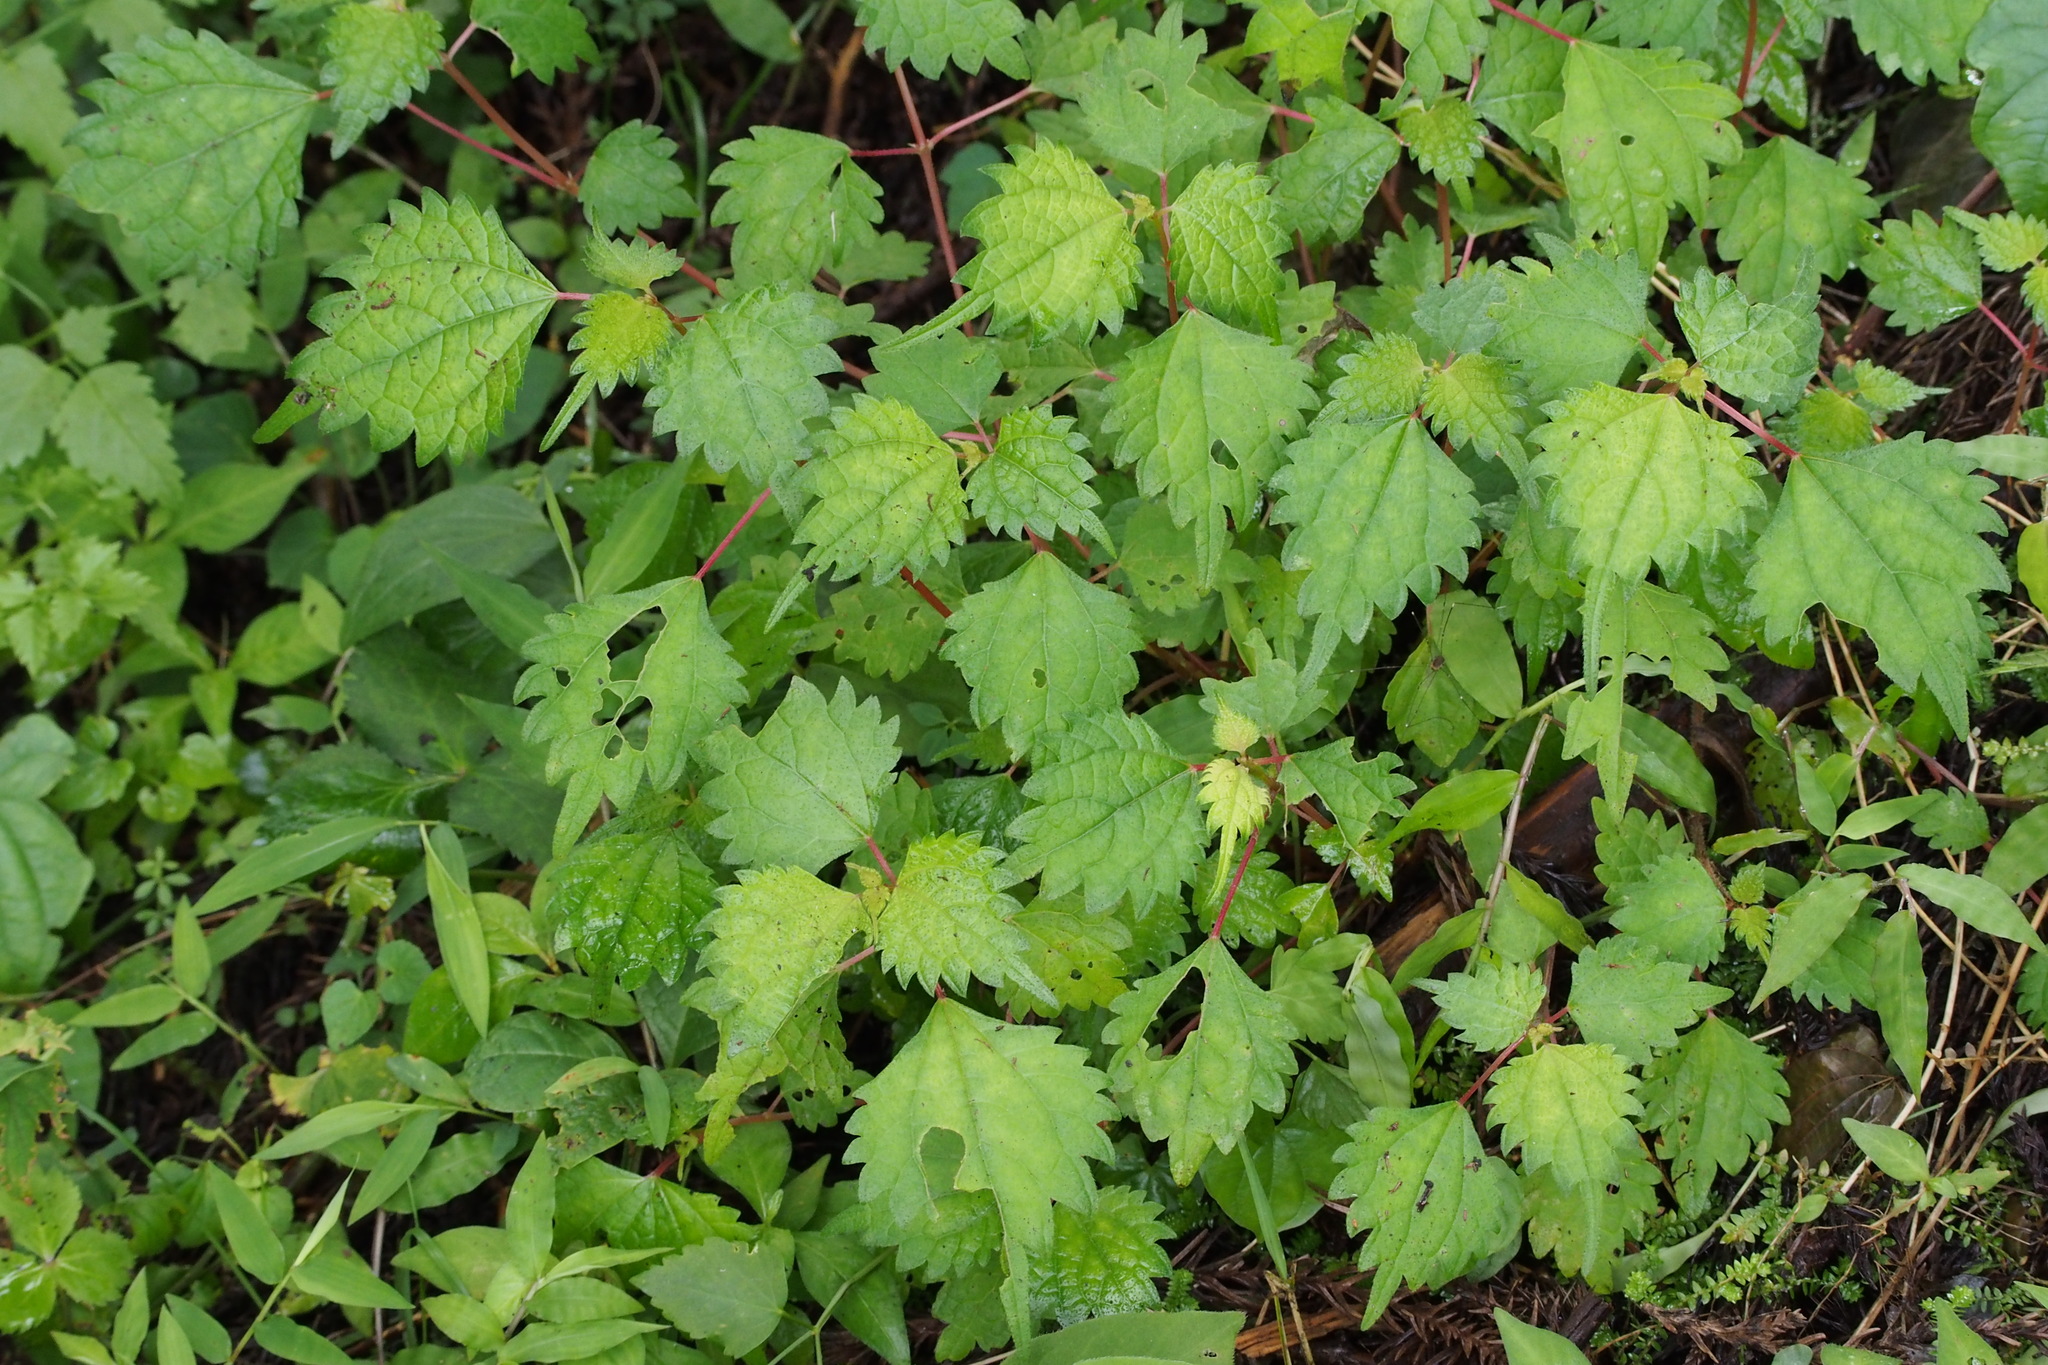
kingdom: Plantae
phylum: Tracheophyta
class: Magnoliopsida
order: Rosales
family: Urticaceae
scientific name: Urticaceae
